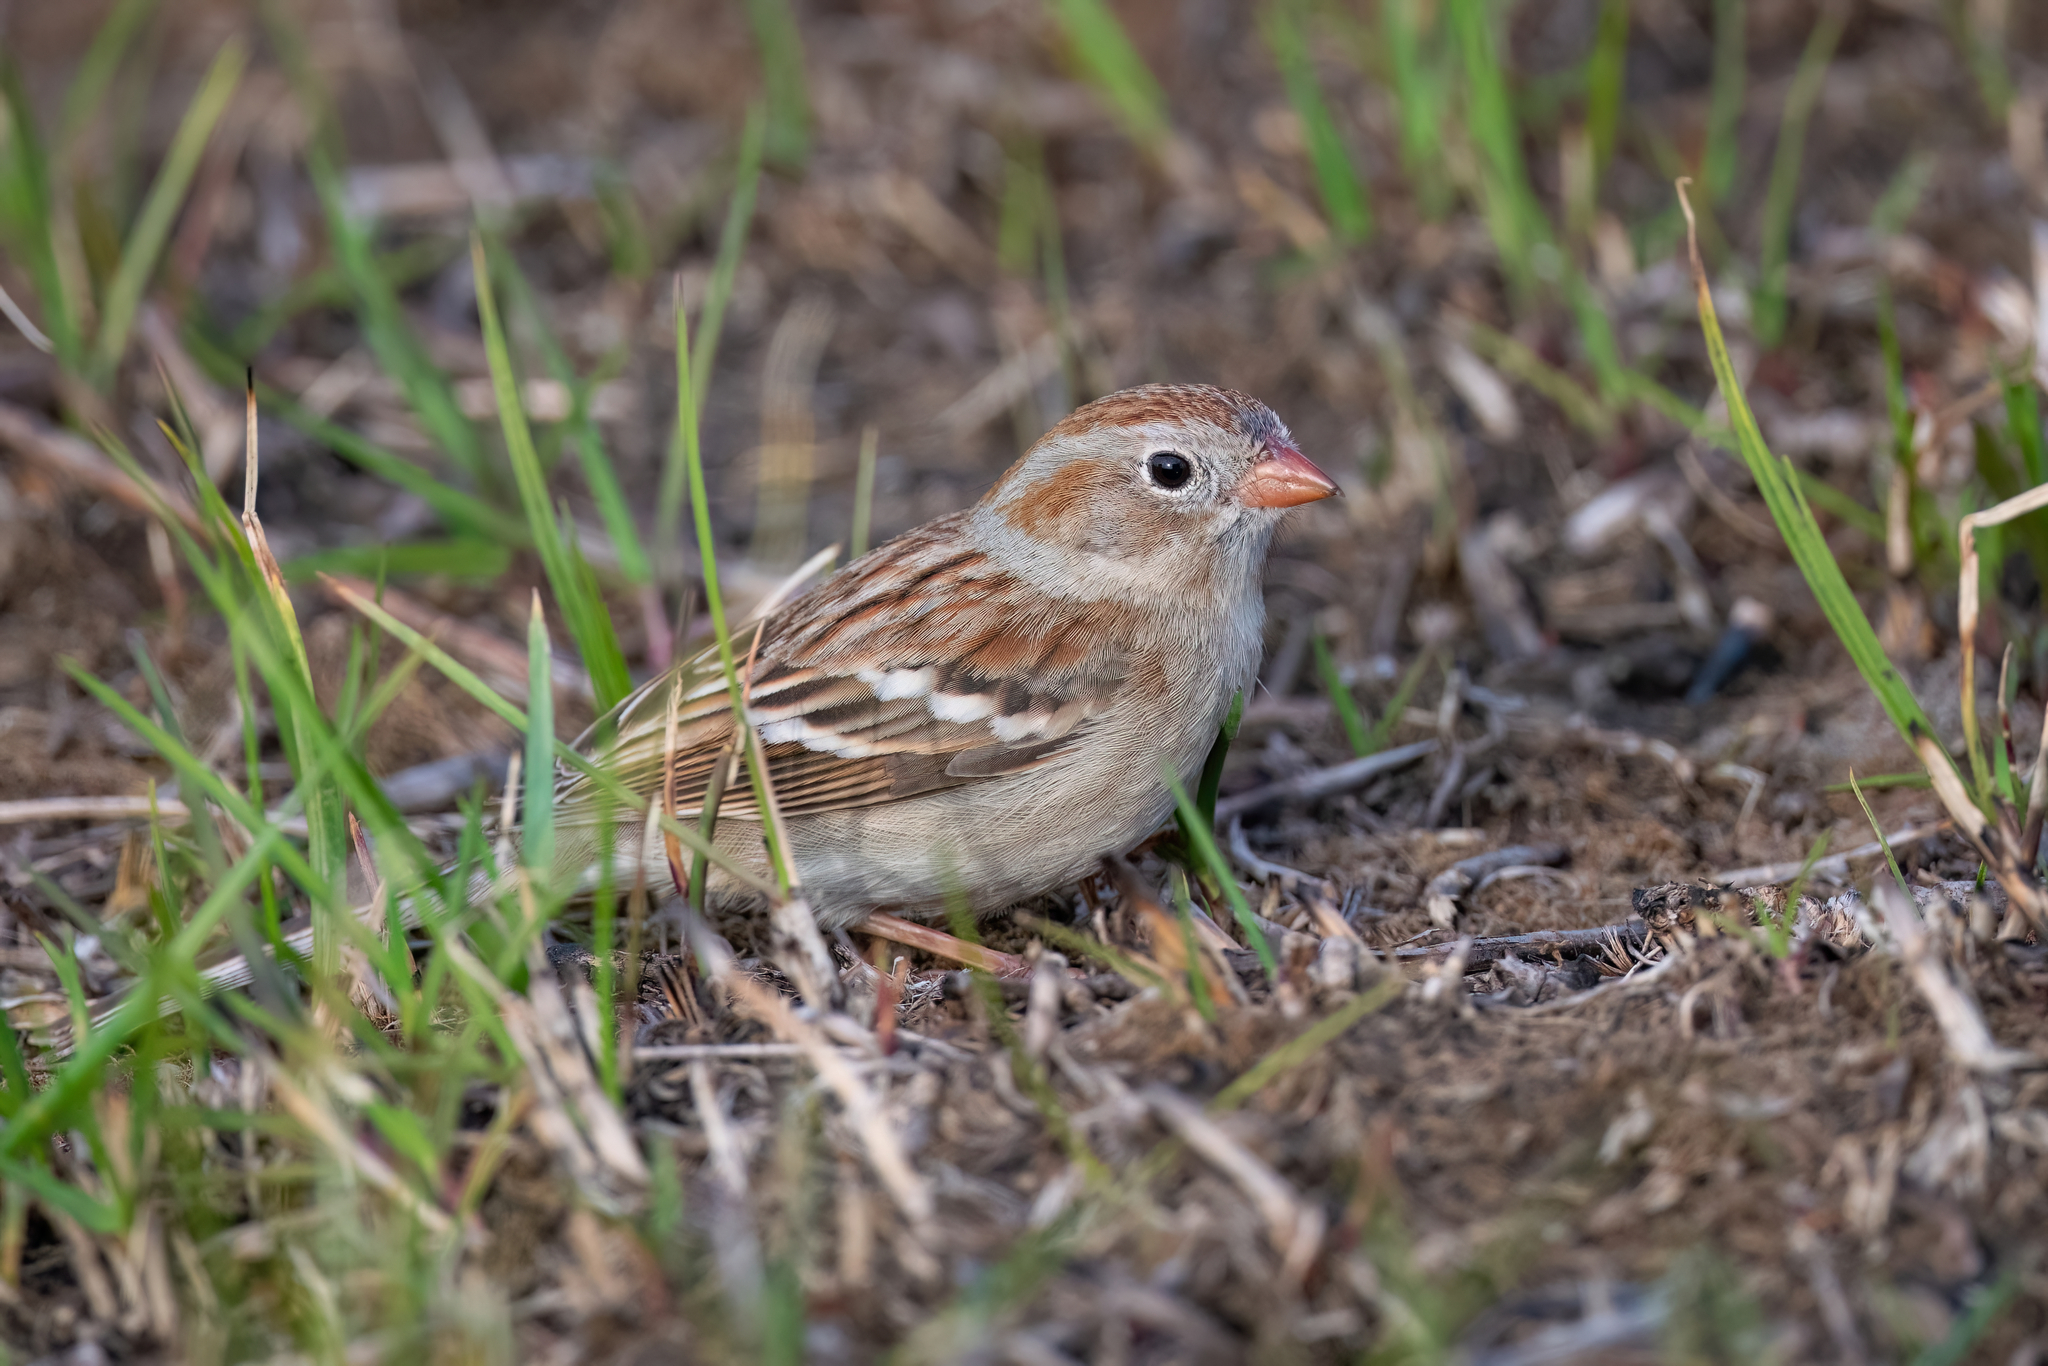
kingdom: Animalia
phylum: Chordata
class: Aves
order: Passeriformes
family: Passerellidae
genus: Spizella
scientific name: Spizella pusilla
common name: Field sparrow
